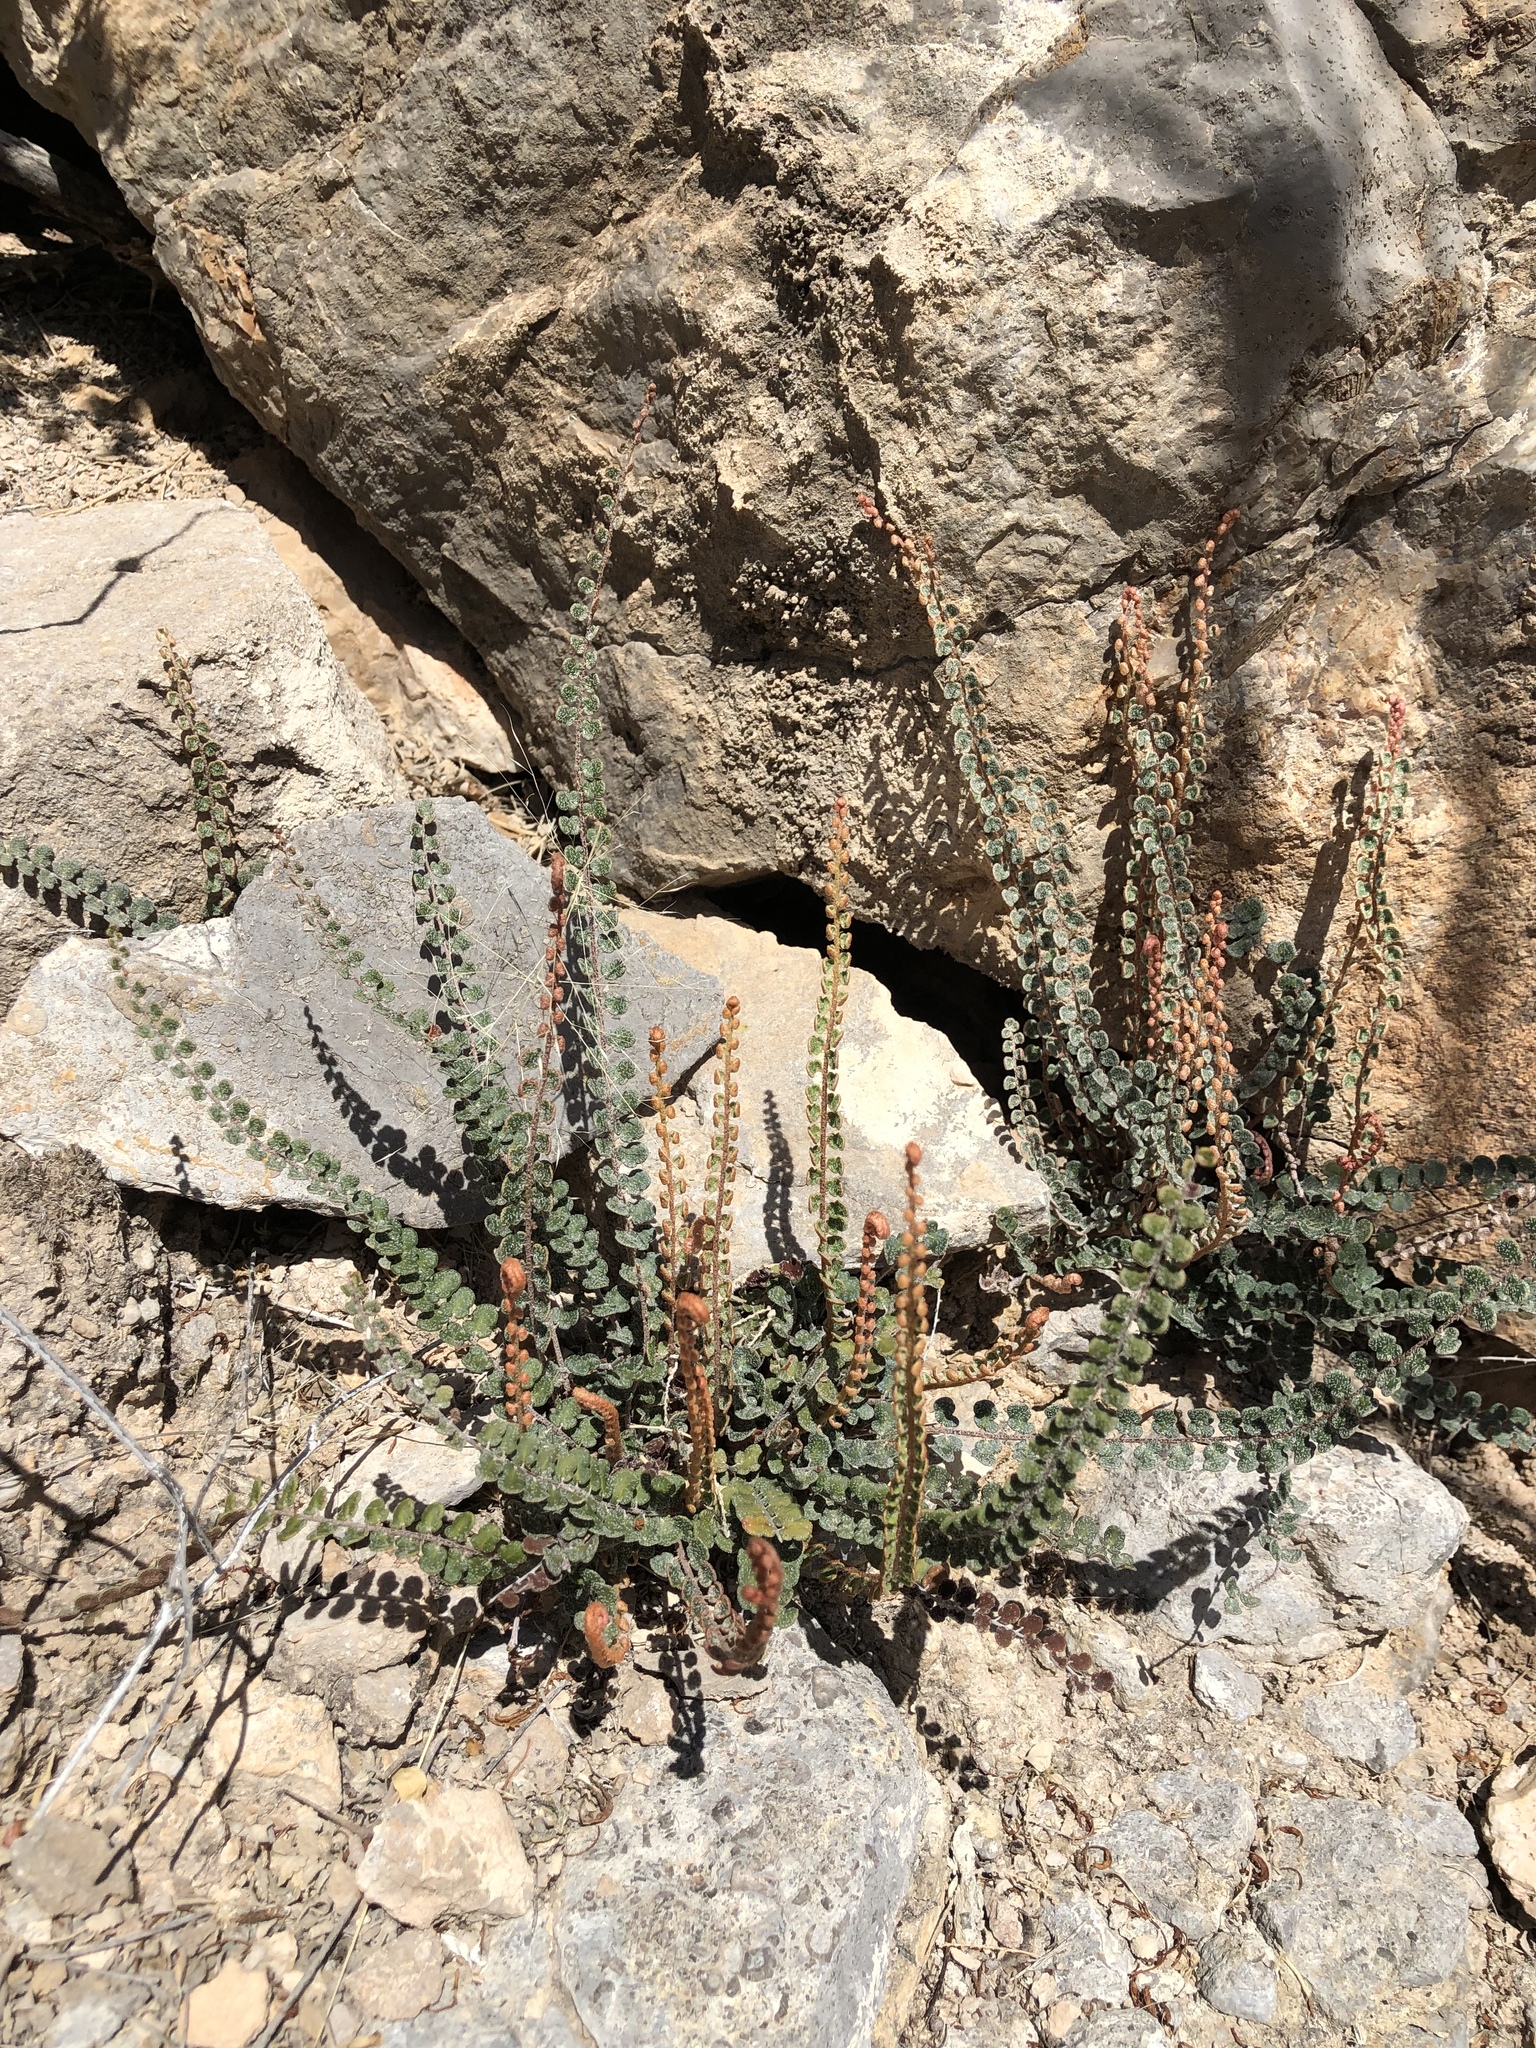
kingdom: Plantae
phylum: Tracheophyta
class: Polypodiopsida
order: Polypodiales
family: Pteridaceae
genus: Astrolepis
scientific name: Astrolepis cochisensis
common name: Scaly cloak fern
